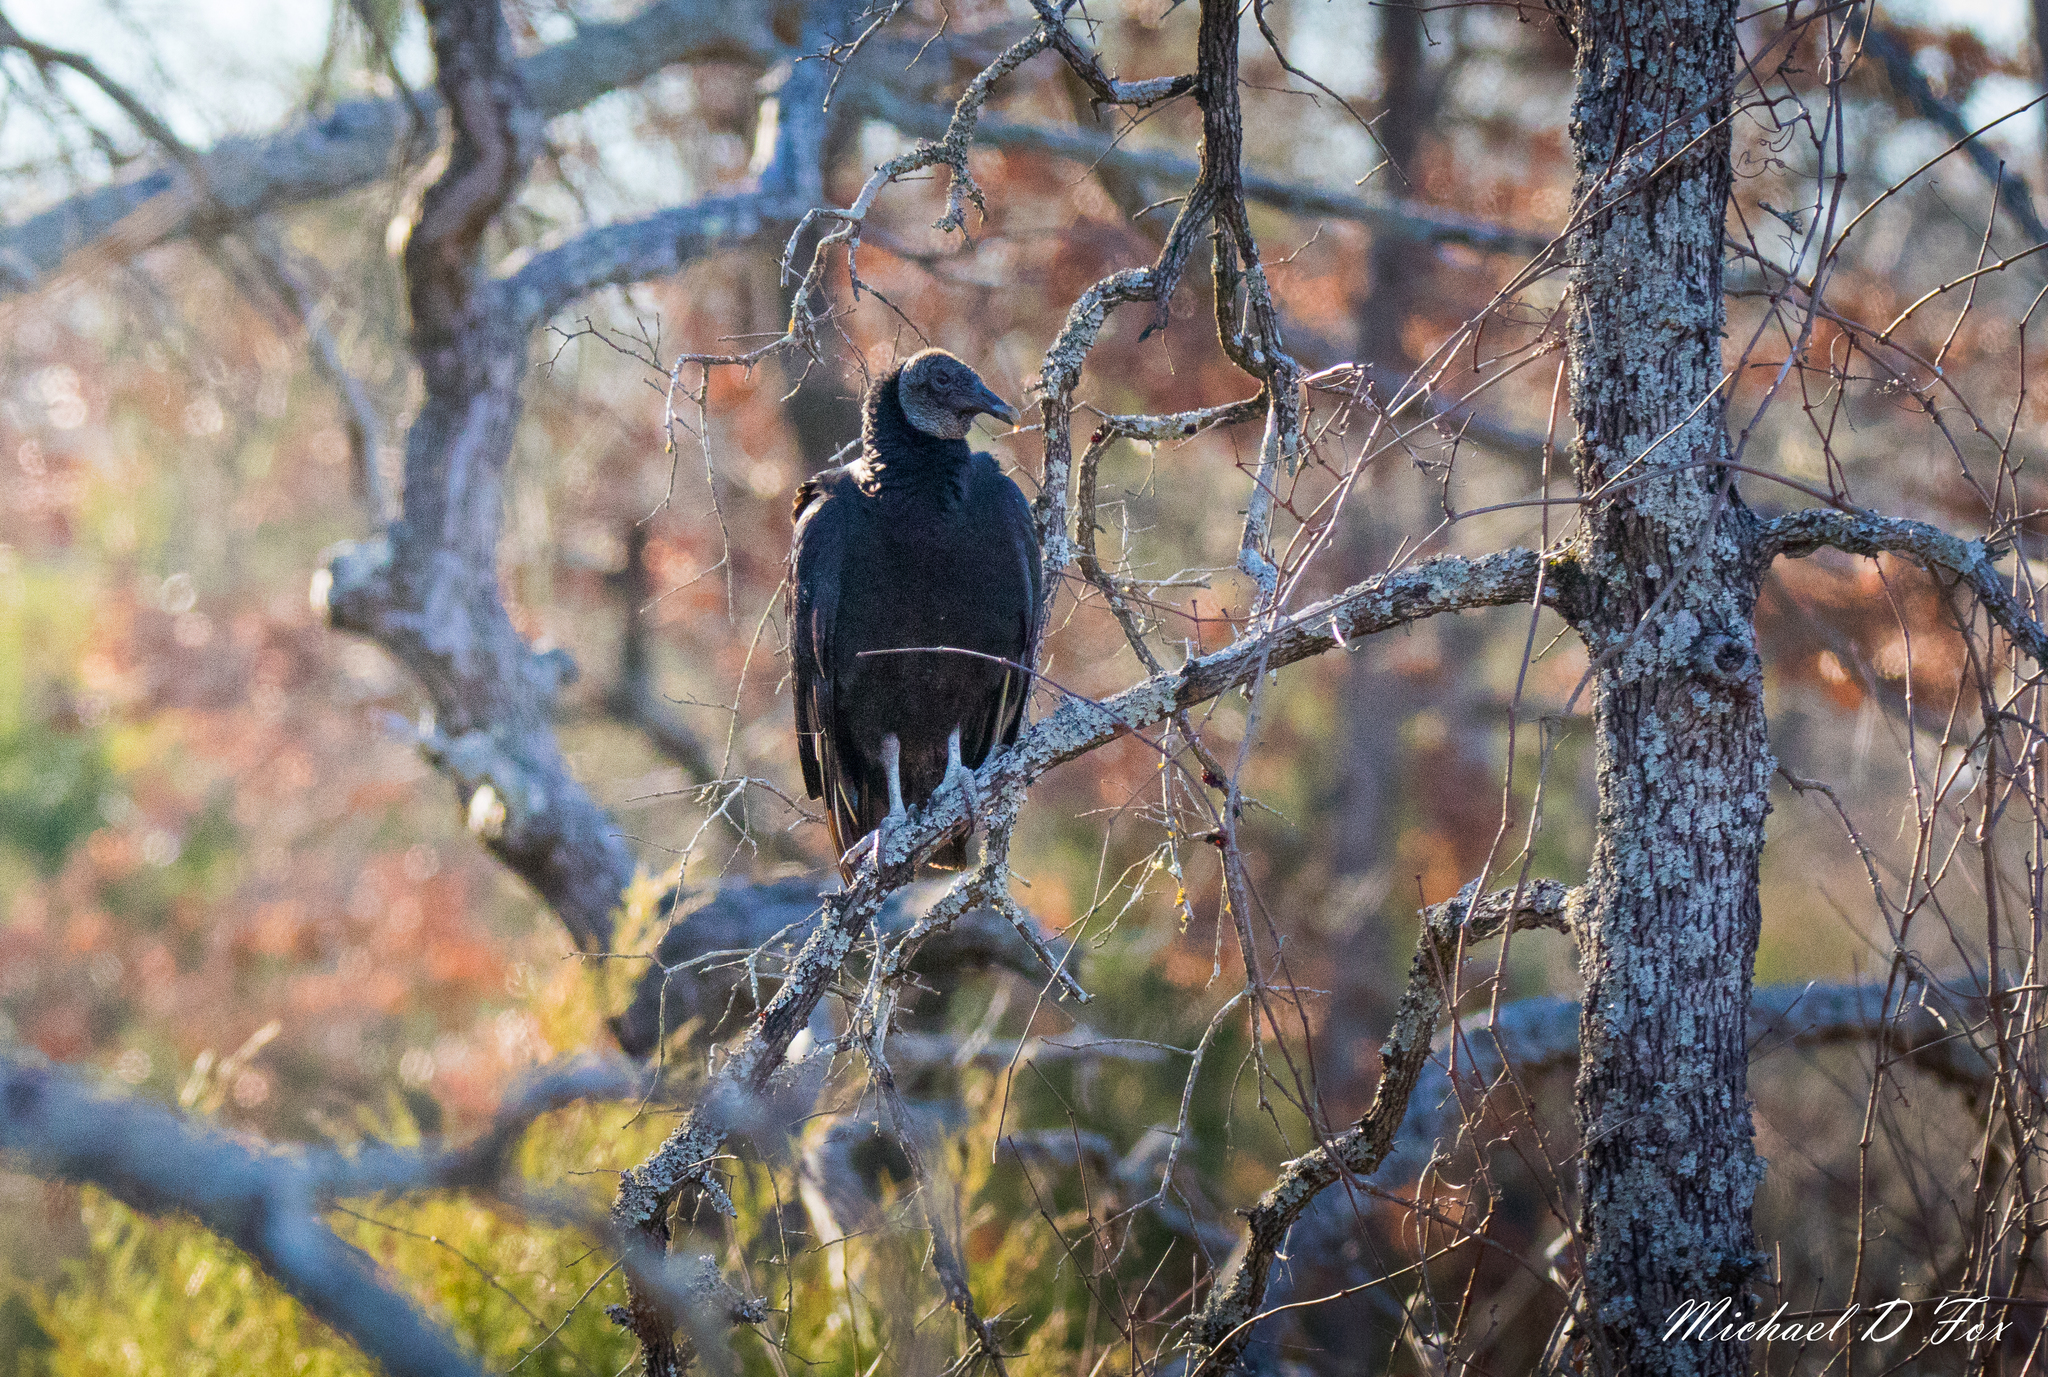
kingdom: Animalia
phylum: Chordata
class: Aves
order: Accipitriformes
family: Cathartidae
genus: Coragyps
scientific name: Coragyps atratus
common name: Black vulture
